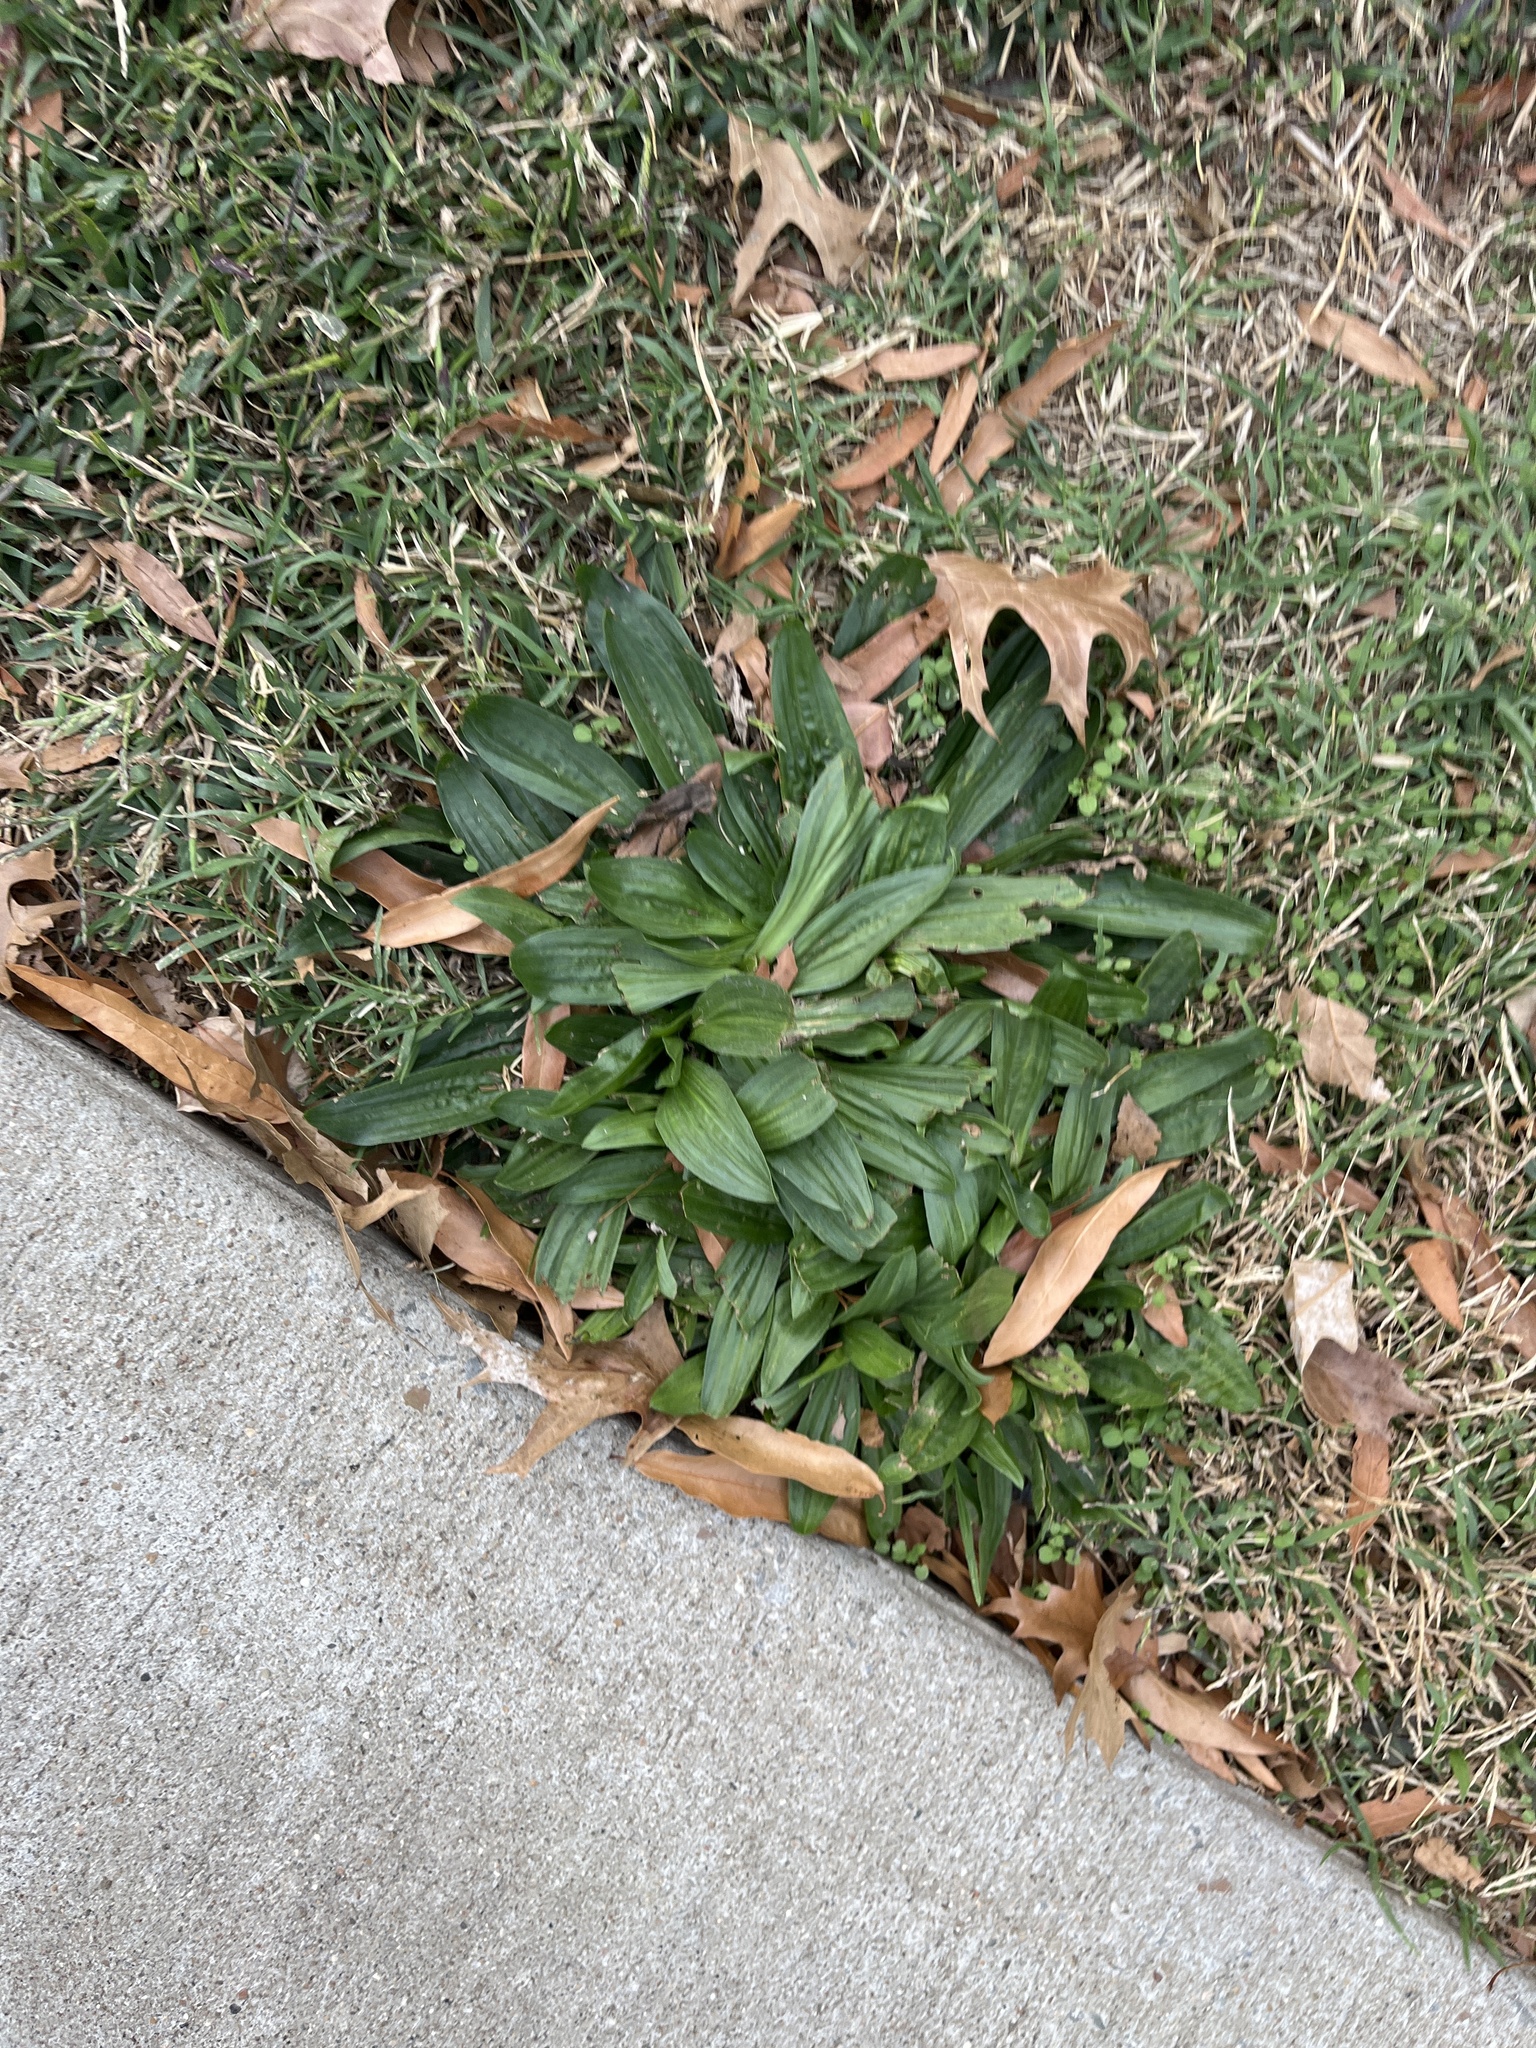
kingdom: Plantae
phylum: Tracheophyta
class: Magnoliopsida
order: Lamiales
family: Plantaginaceae
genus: Plantago
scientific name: Plantago lanceolata
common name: Ribwort plantain
